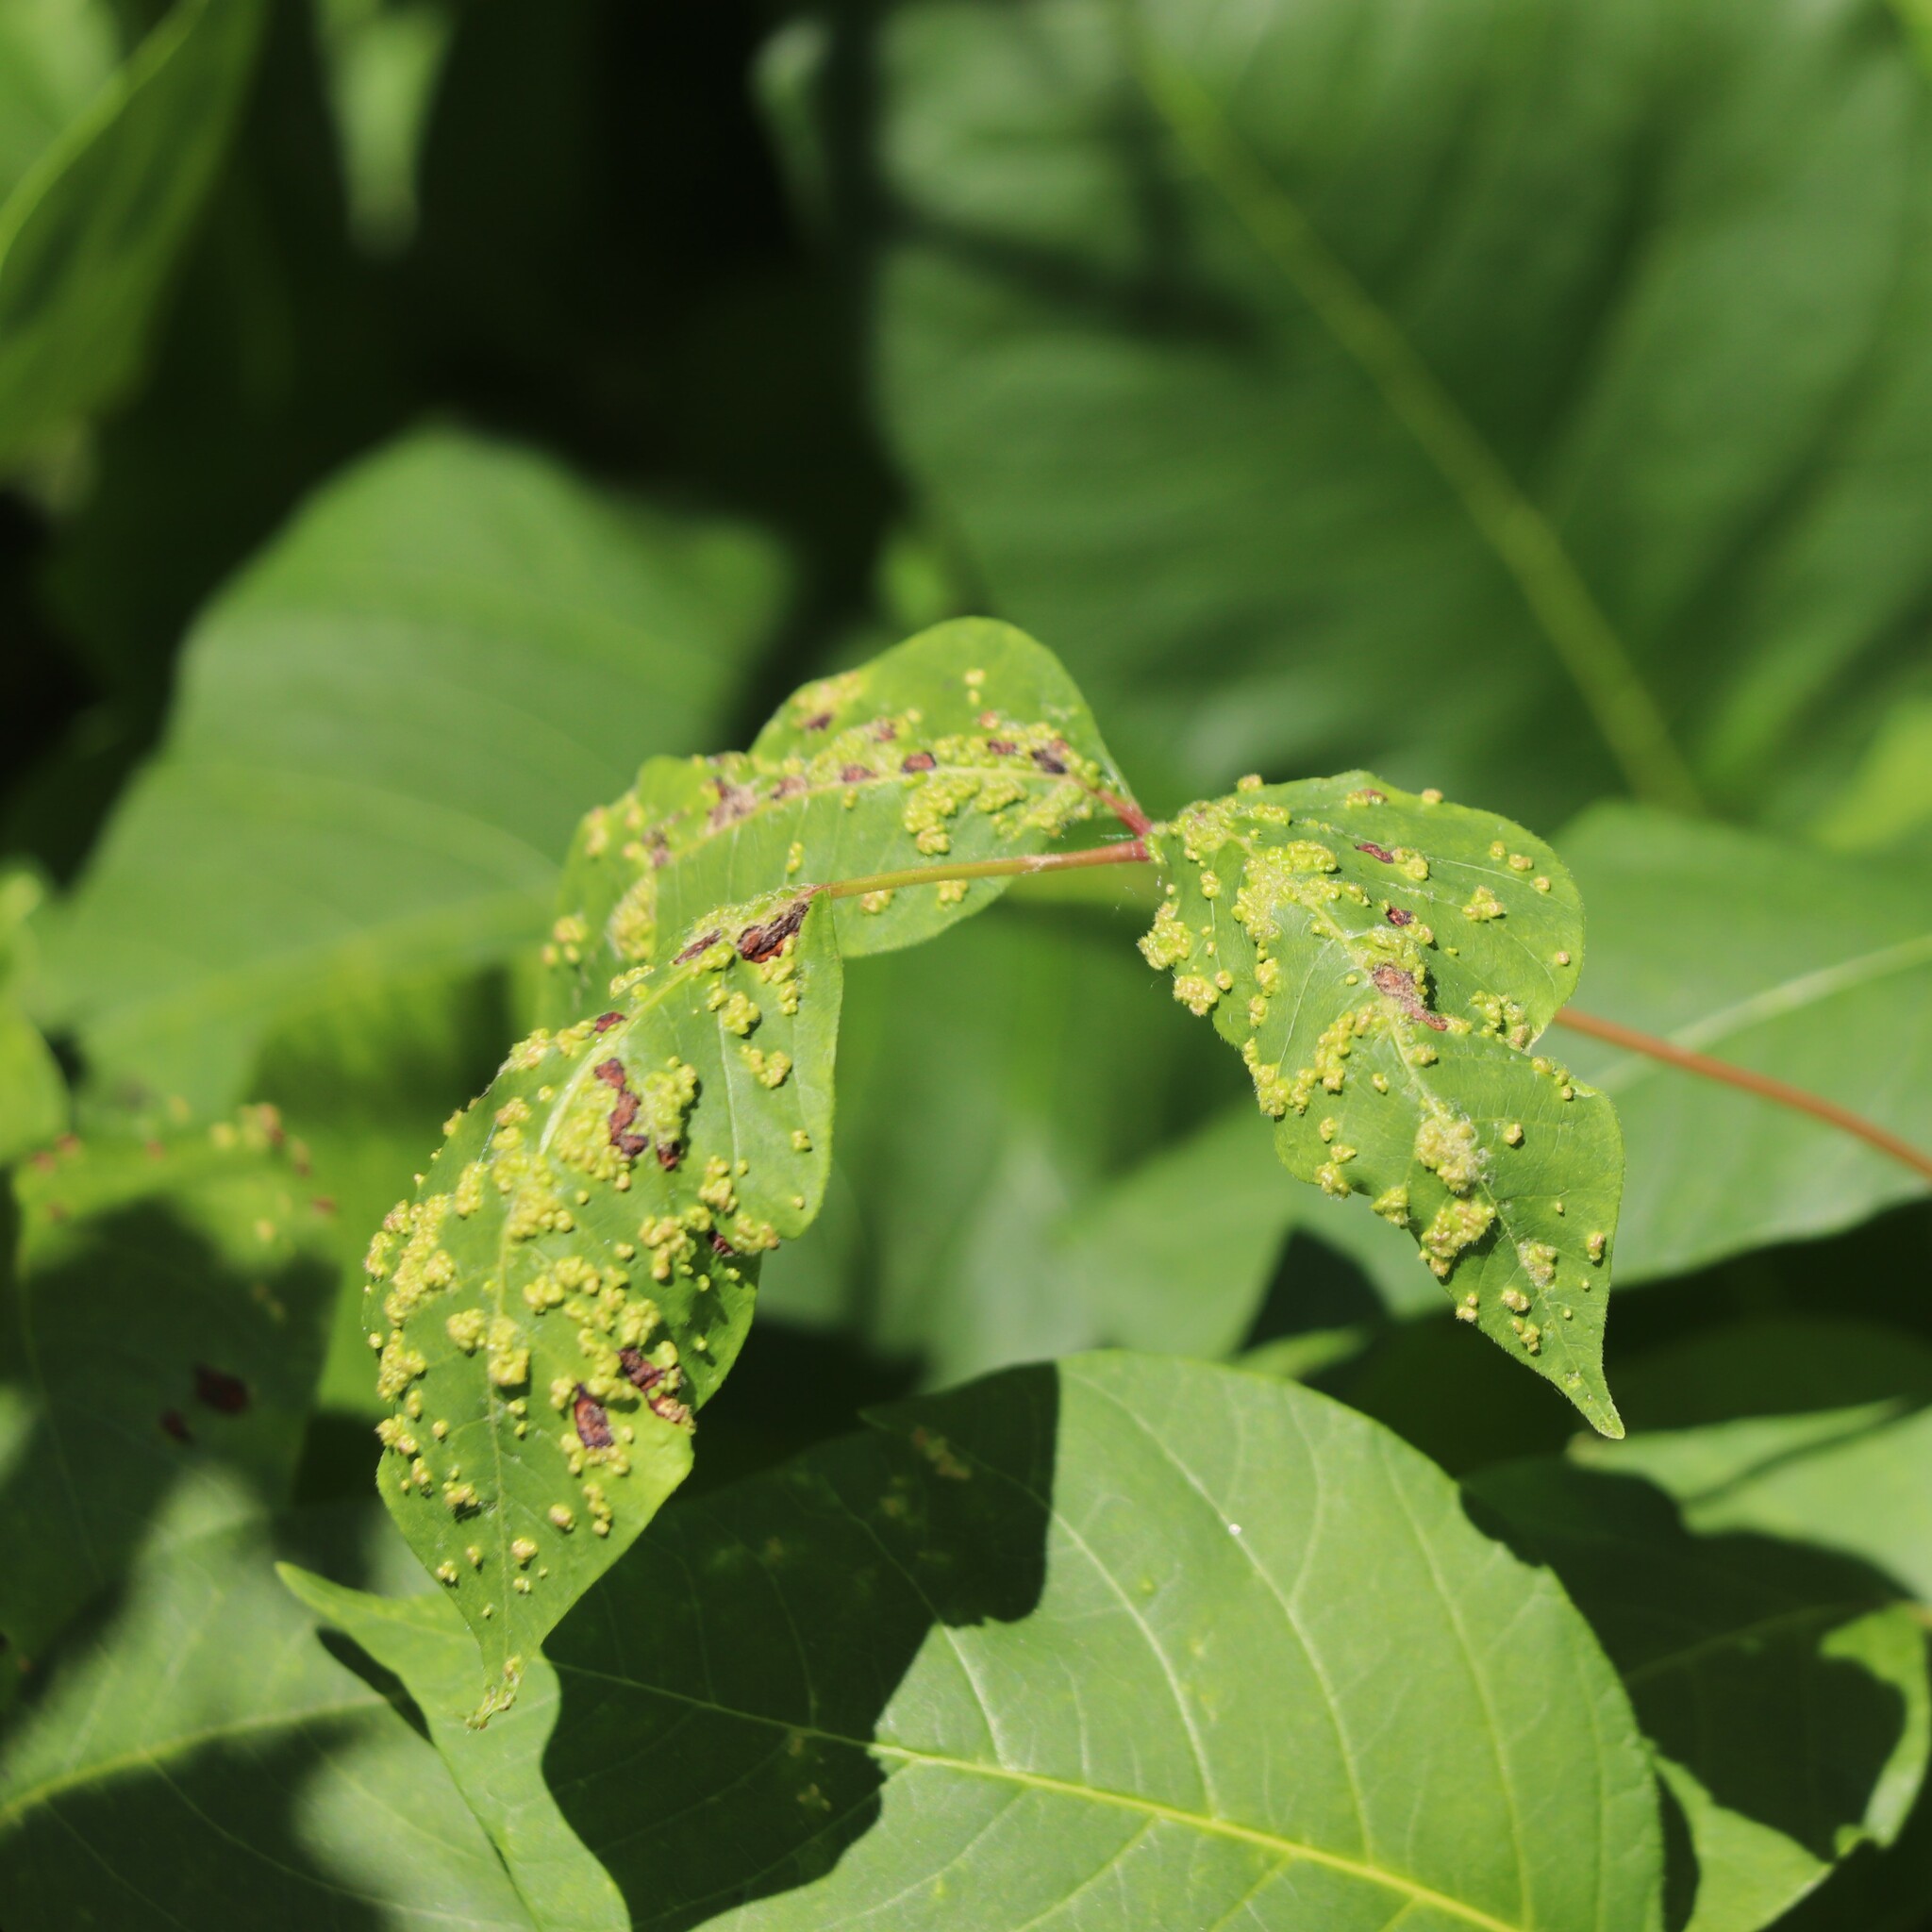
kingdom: Animalia
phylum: Arthropoda
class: Arachnida
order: Trombidiformes
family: Eriophyidae
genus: Aculops
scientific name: Aculops
